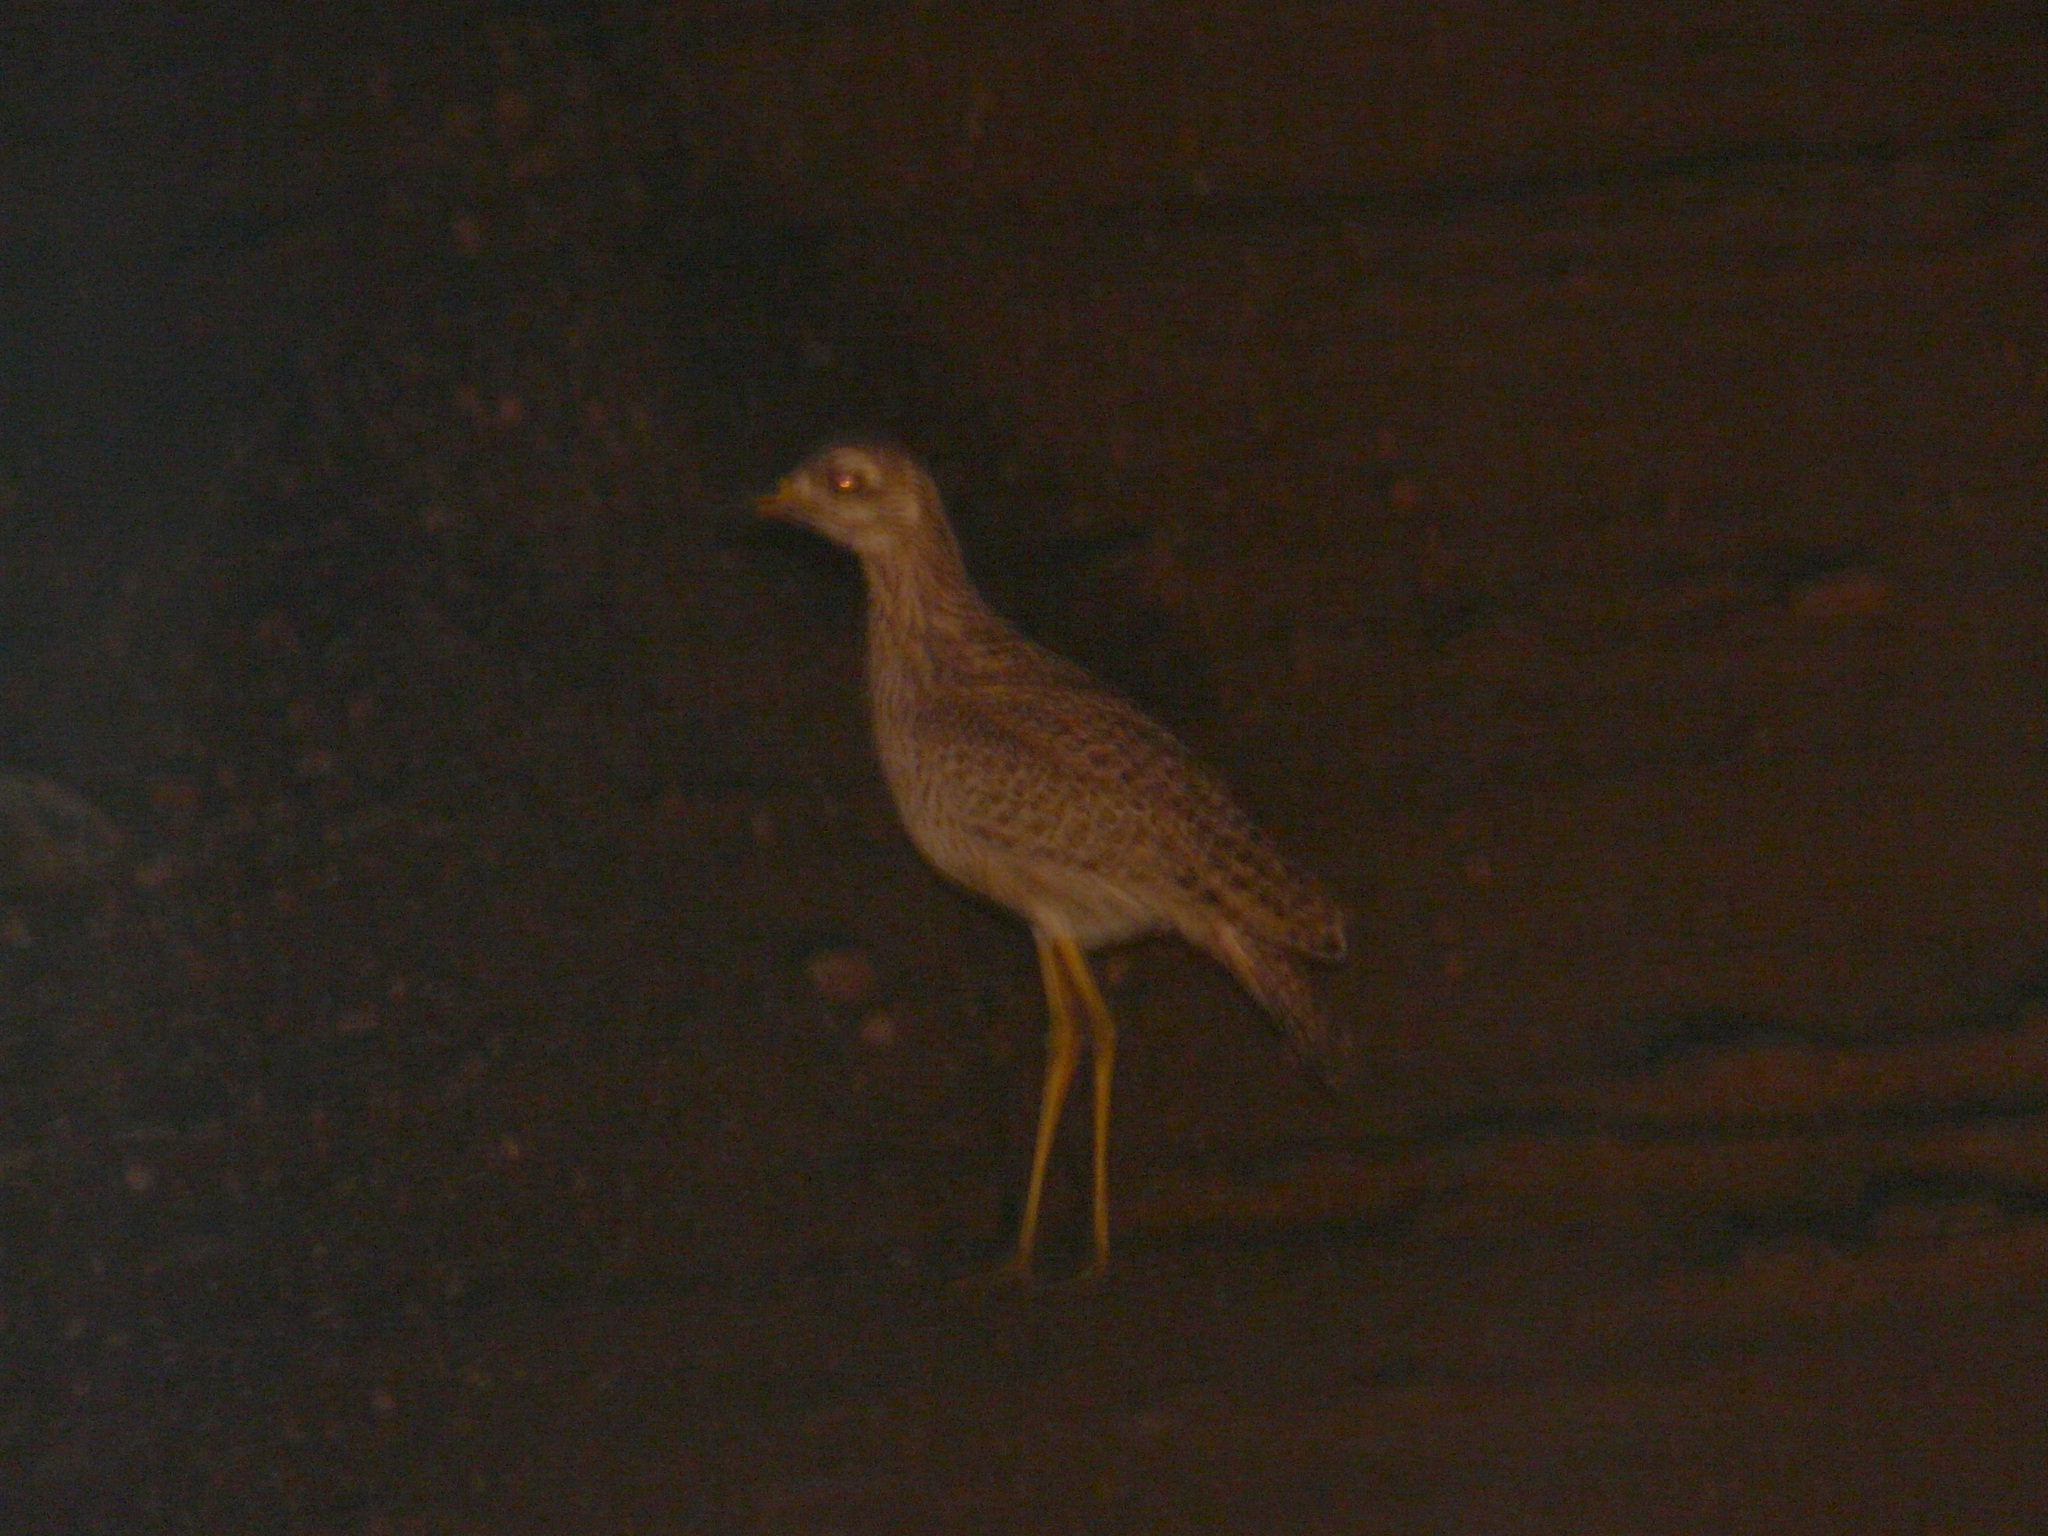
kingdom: Animalia
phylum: Chordata
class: Aves
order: Charadriiformes
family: Burhinidae
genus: Burhinus
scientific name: Burhinus capensis
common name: Spotted thick-knee
